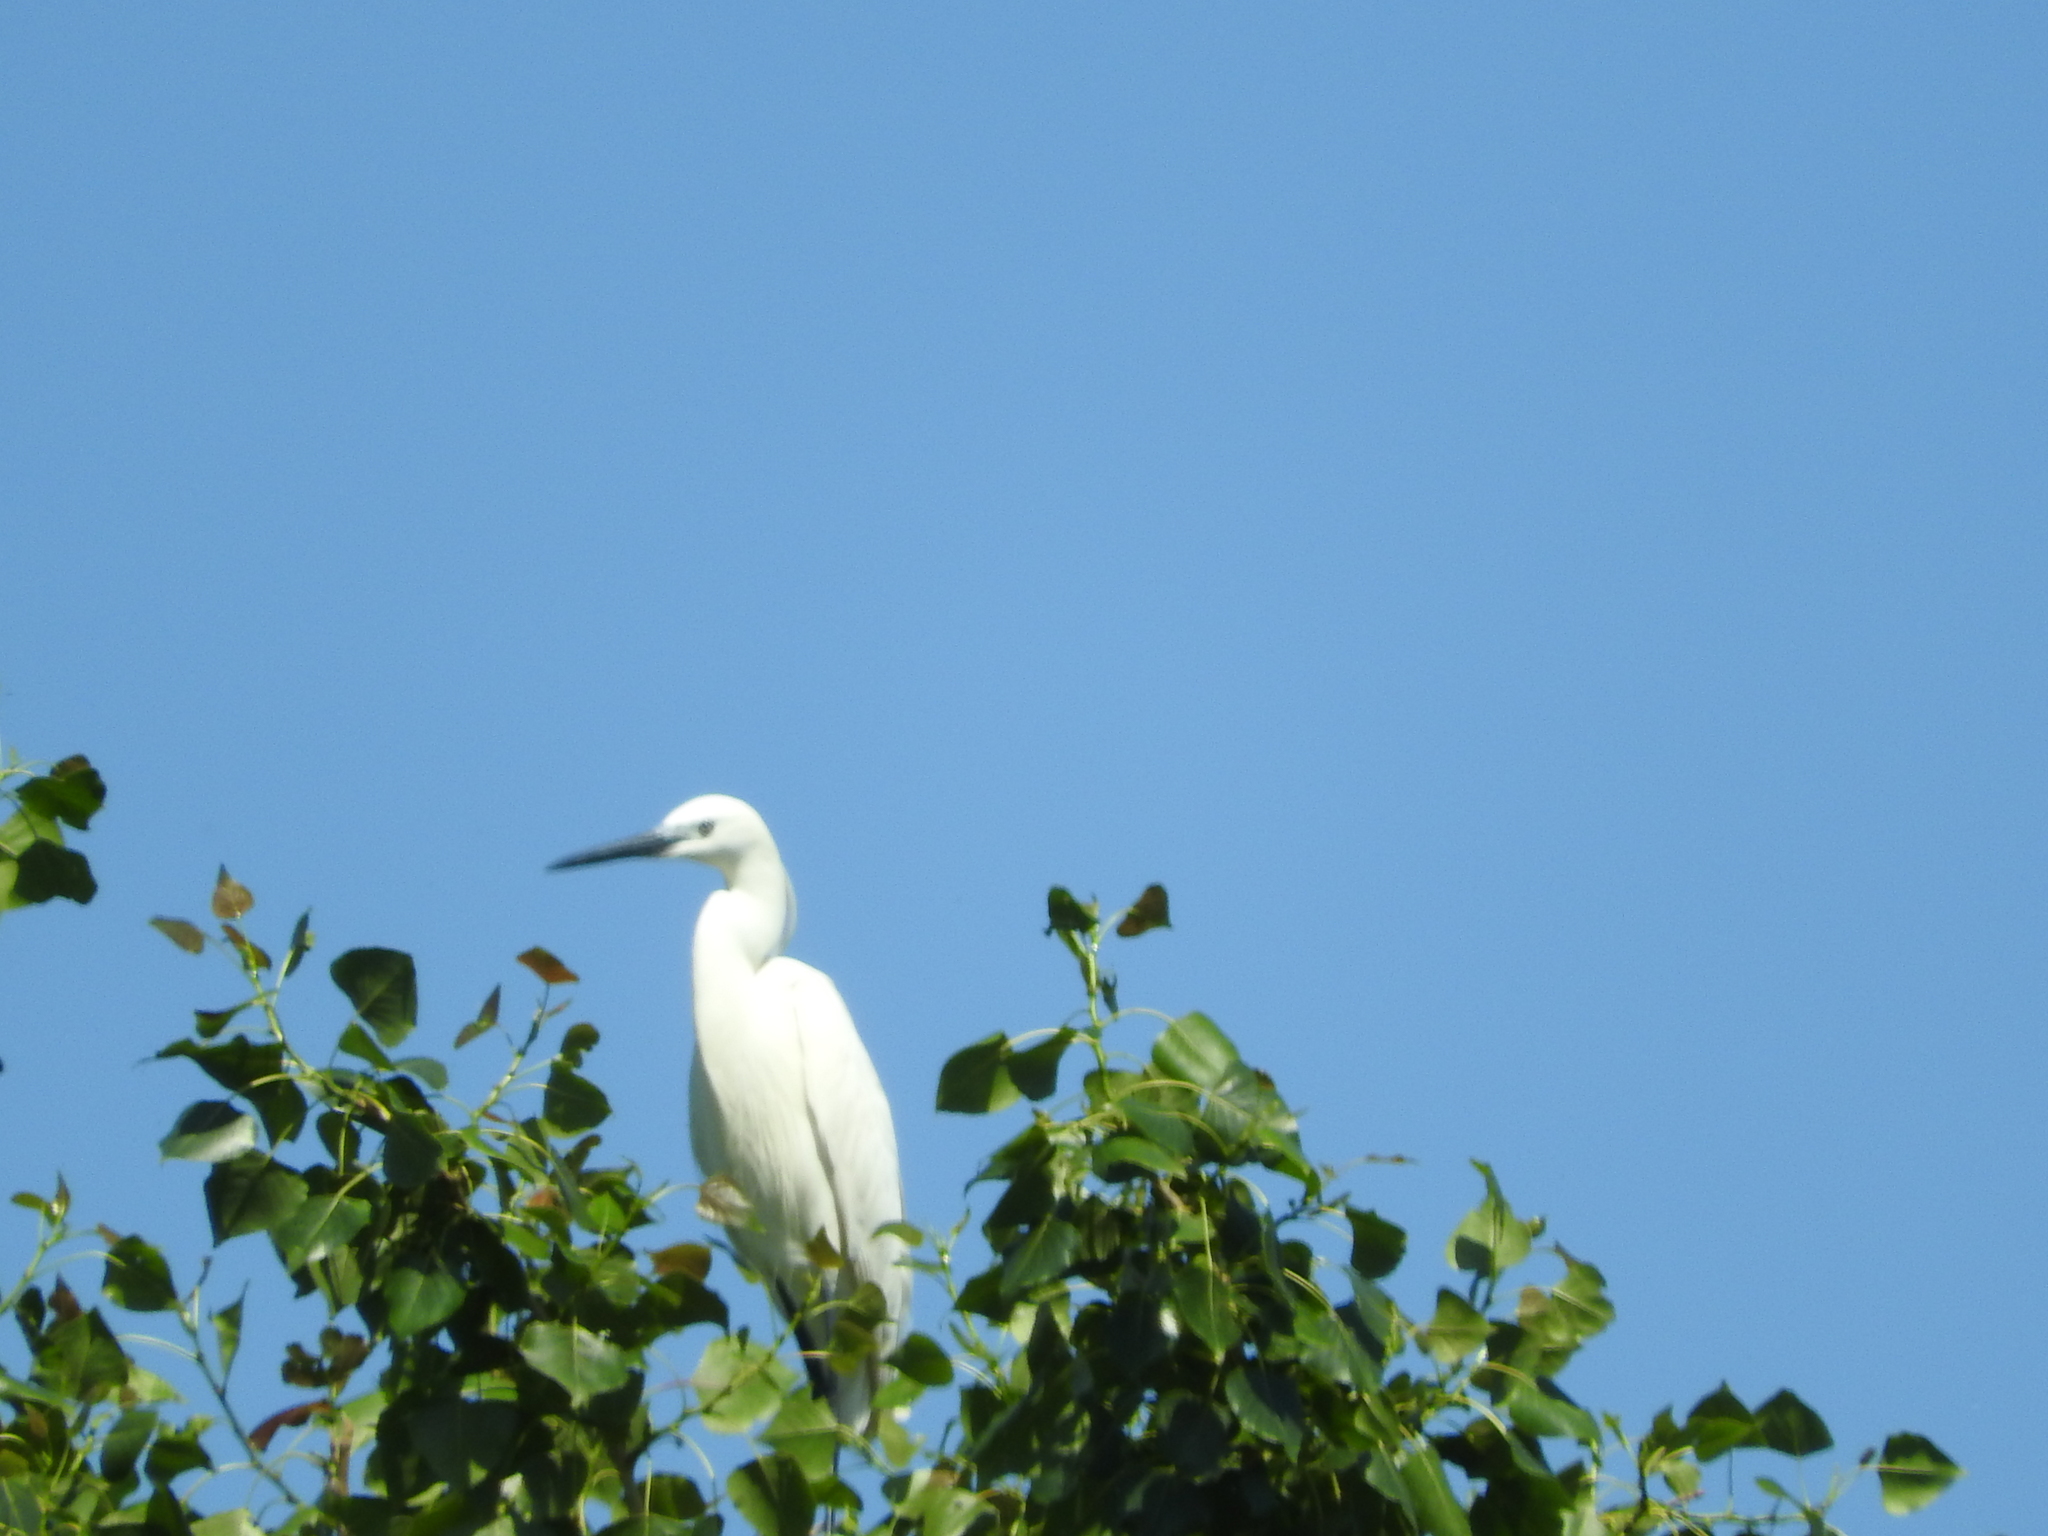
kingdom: Animalia
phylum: Chordata
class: Aves
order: Pelecaniformes
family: Ardeidae
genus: Egretta
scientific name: Egretta garzetta
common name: Little egret
